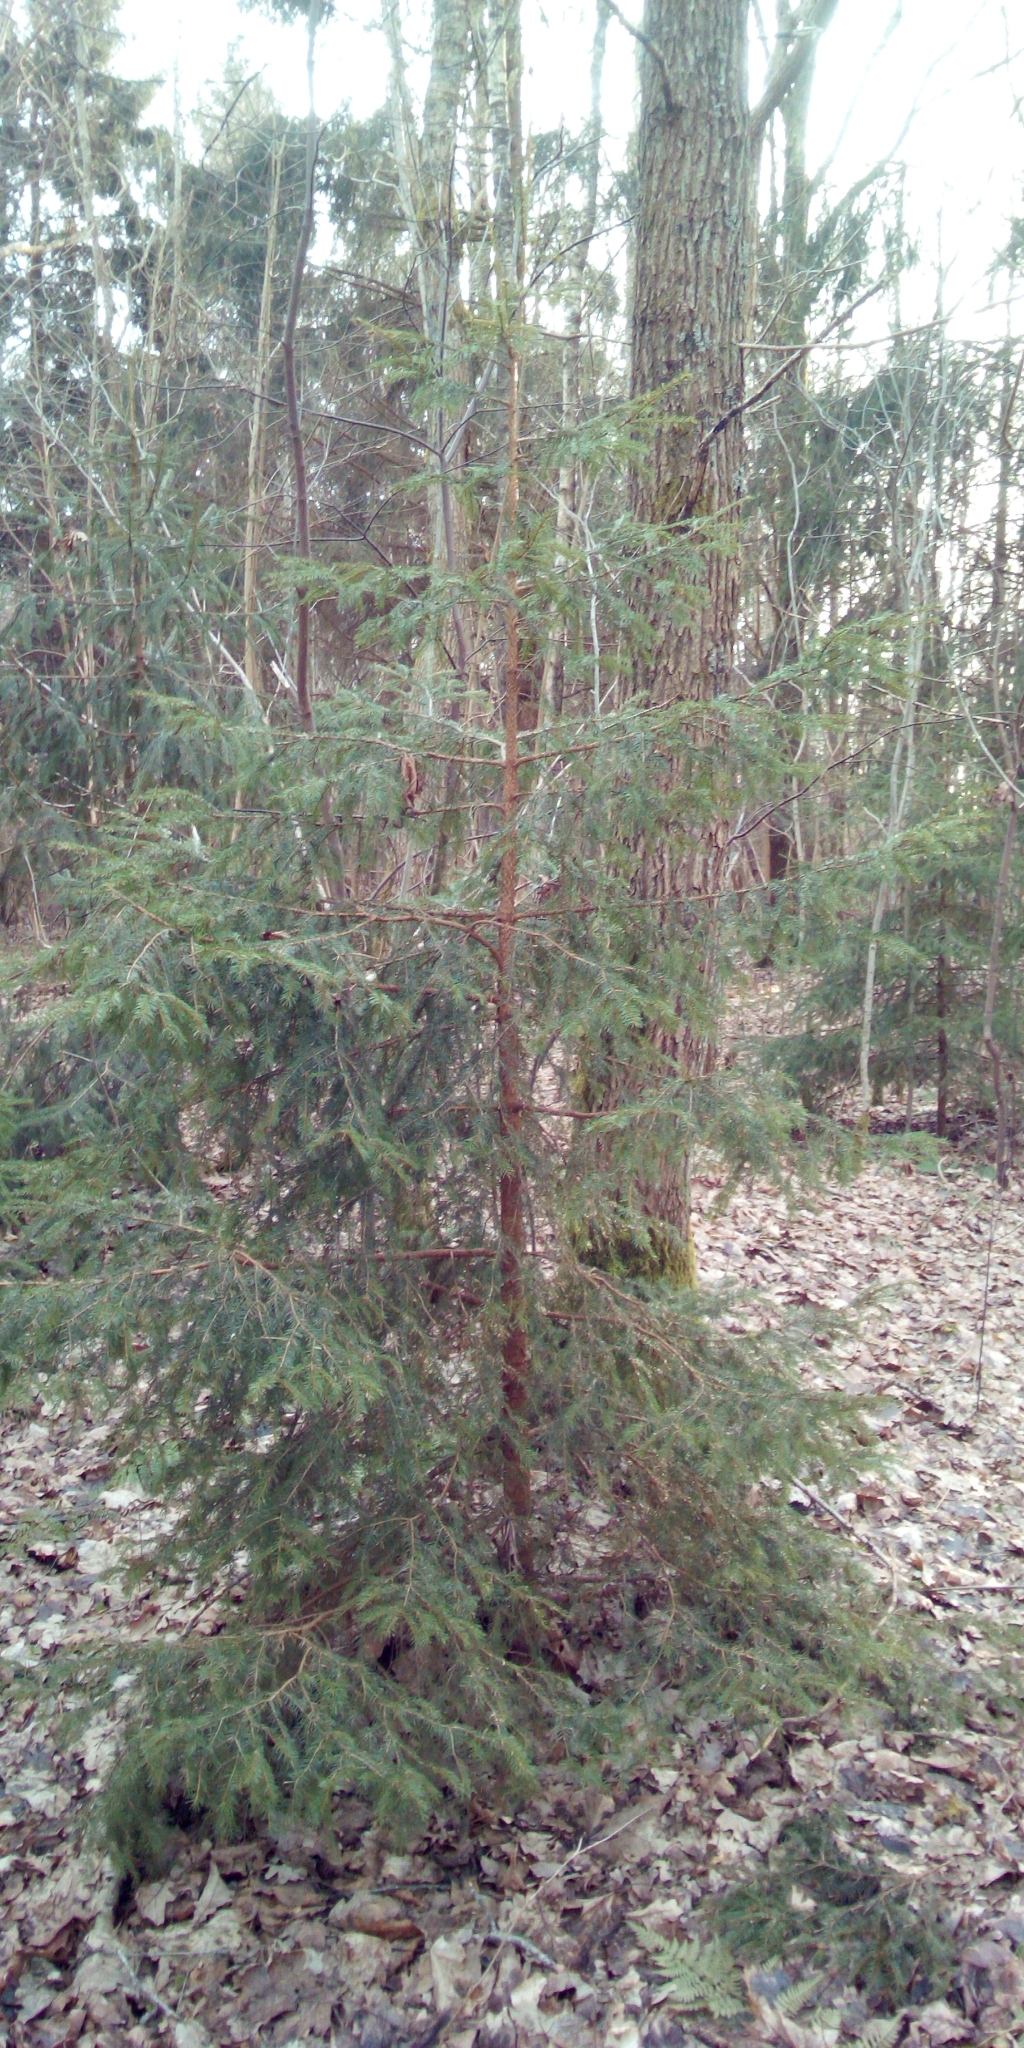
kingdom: Plantae
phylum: Tracheophyta
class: Pinopsida
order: Pinales
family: Pinaceae
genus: Picea
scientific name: Picea abies
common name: Norway spruce
